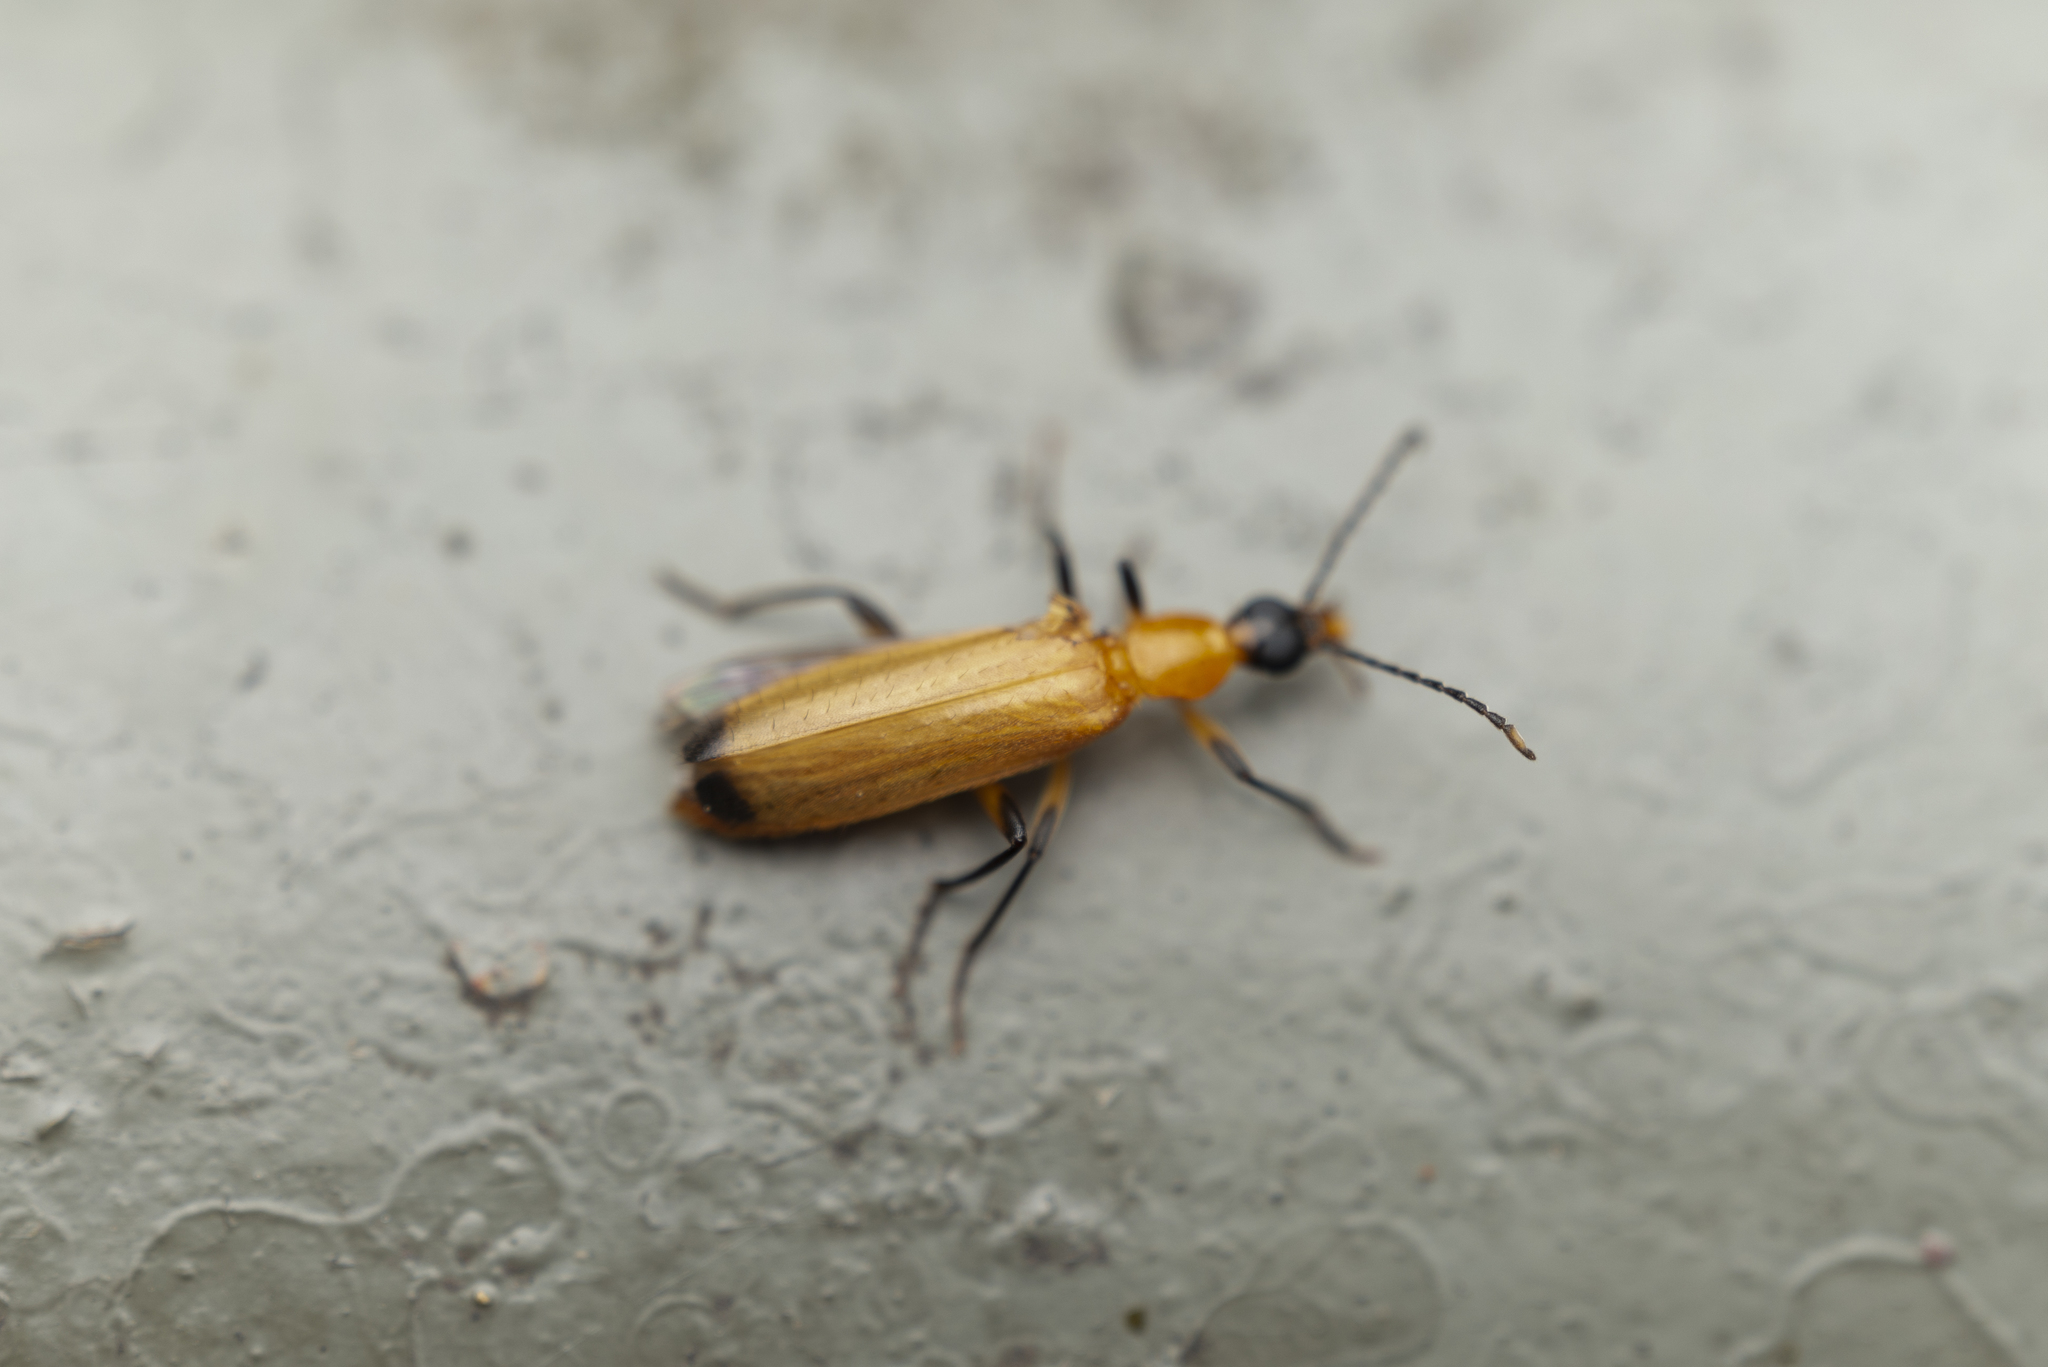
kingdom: Animalia
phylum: Arthropoda
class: Insecta
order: Coleoptera
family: Prionoceridae
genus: Idgia
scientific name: Idgia
